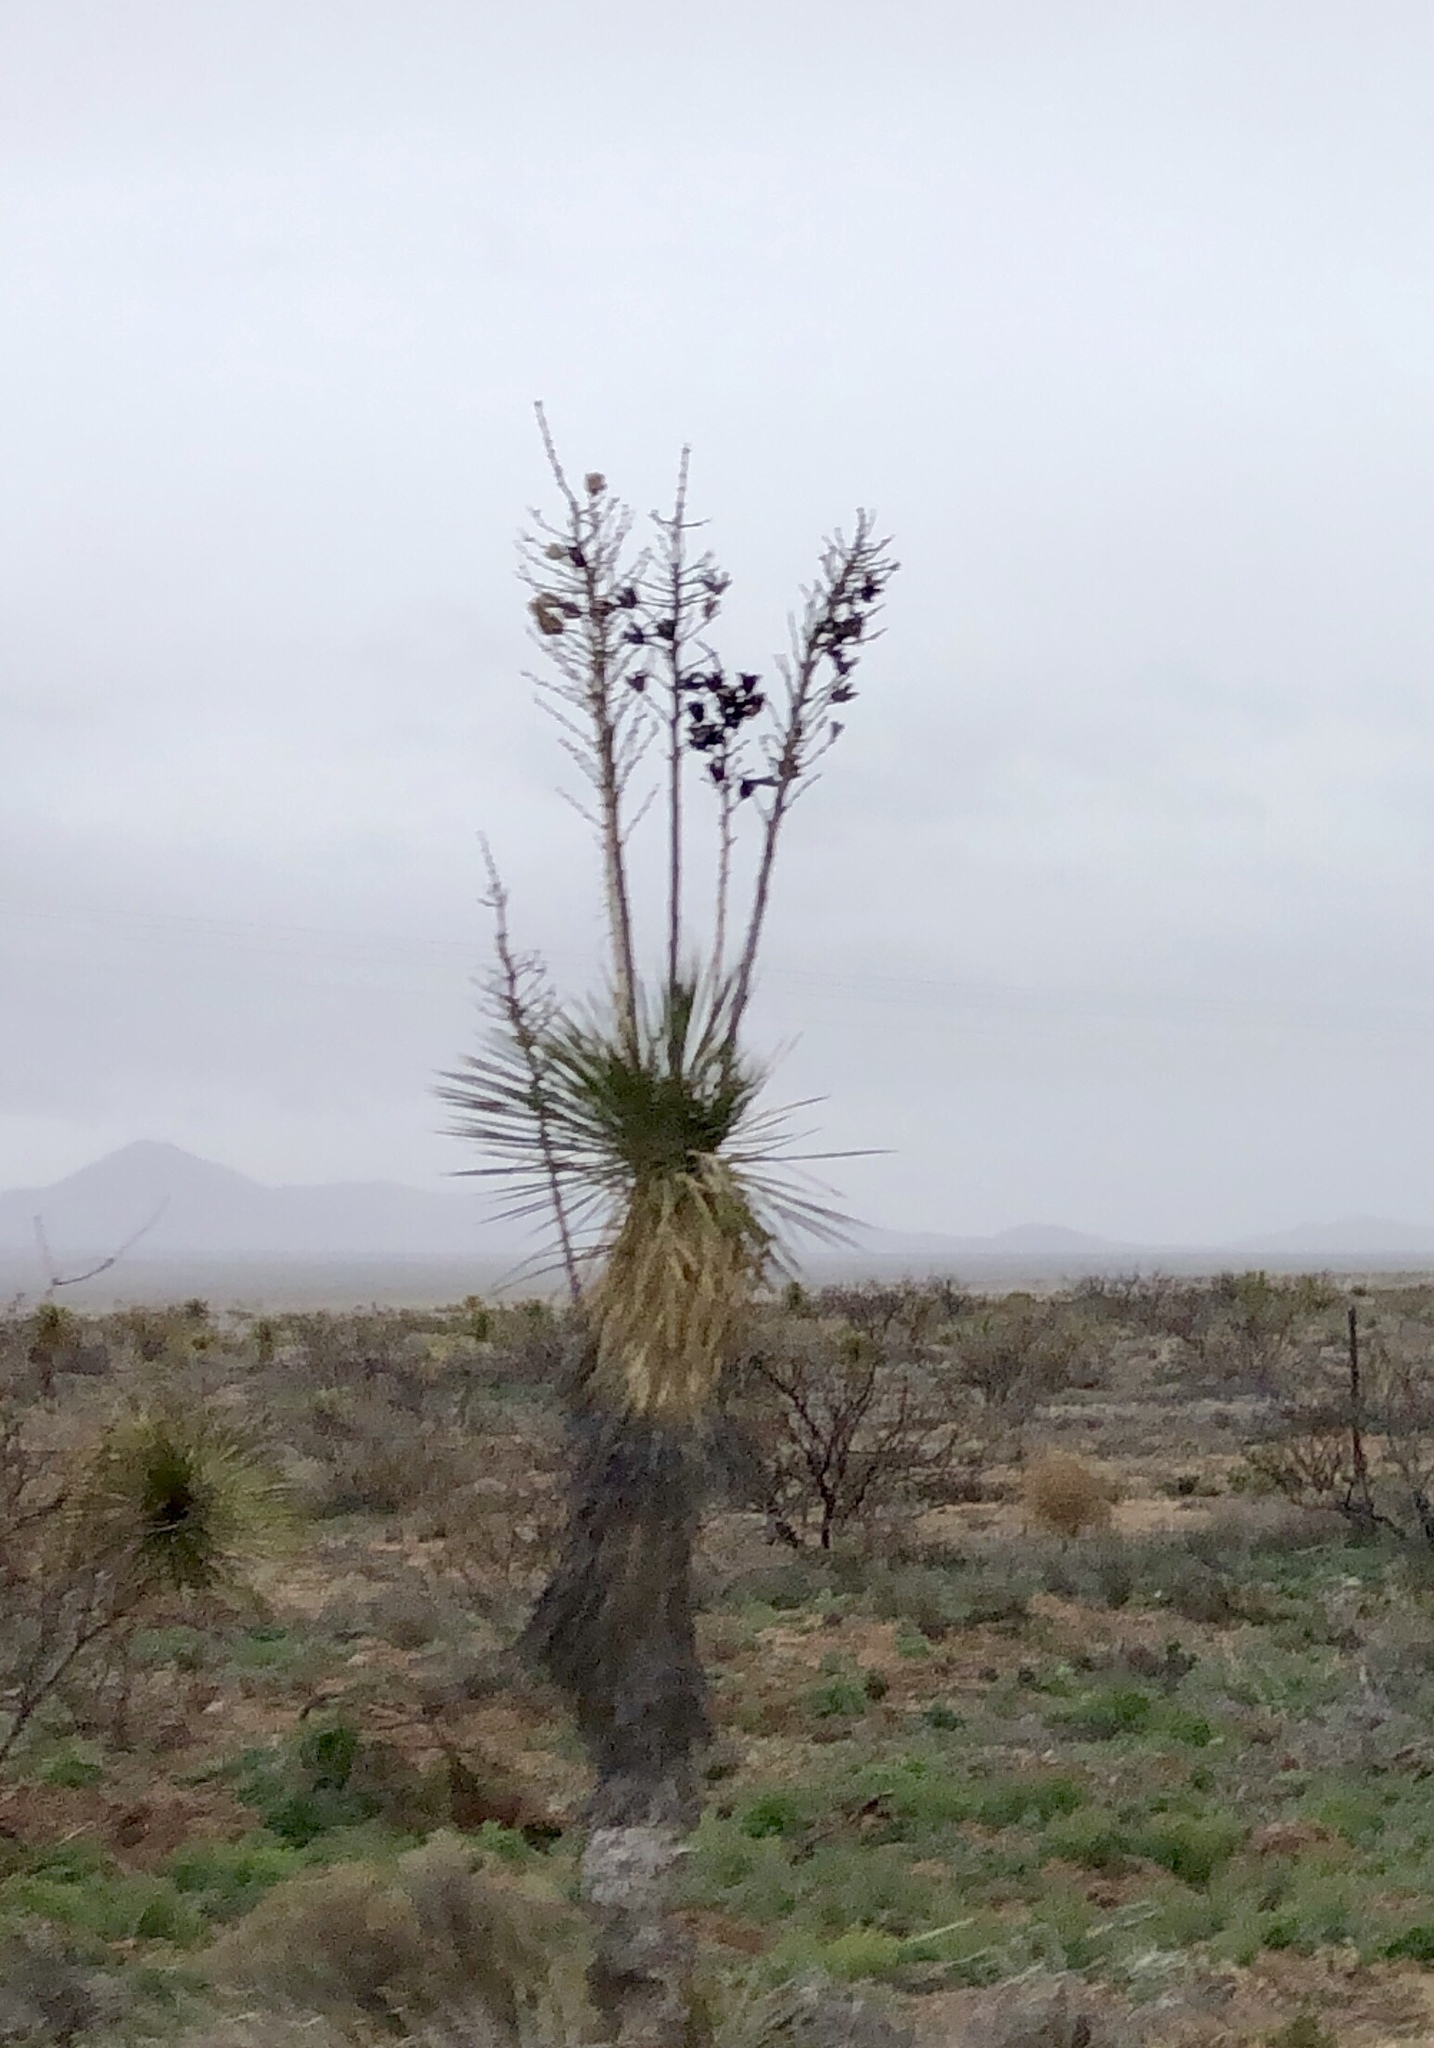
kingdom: Plantae
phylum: Tracheophyta
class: Liliopsida
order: Asparagales
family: Asparagaceae
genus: Yucca
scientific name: Yucca elata
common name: Palmella
